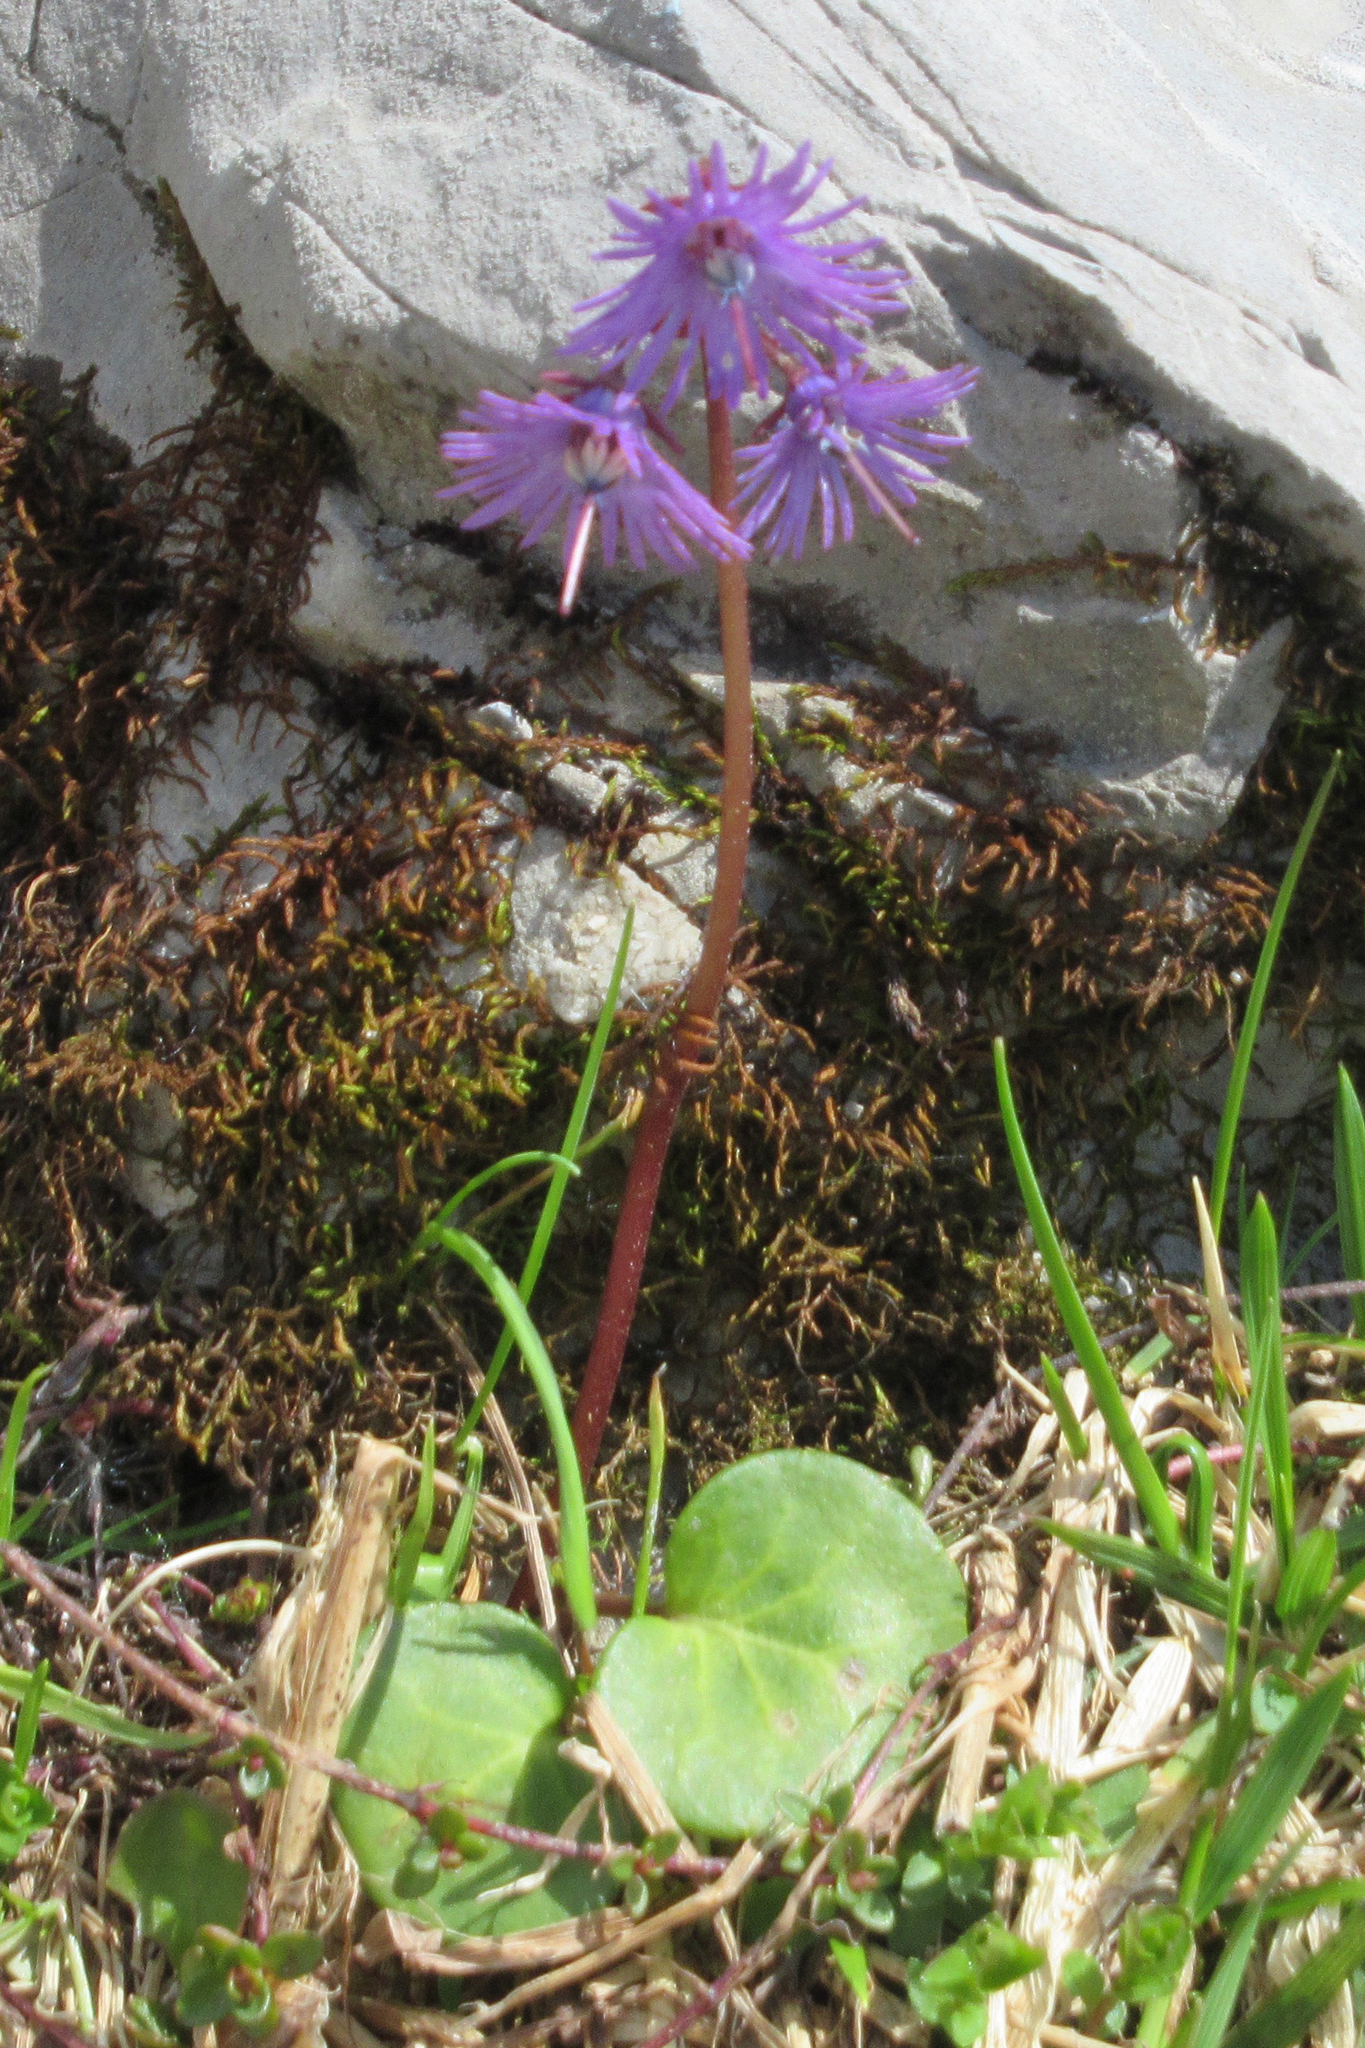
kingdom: Plantae
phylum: Tracheophyta
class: Magnoliopsida
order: Ericales
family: Primulaceae
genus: Soldanella
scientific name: Soldanella alpina
